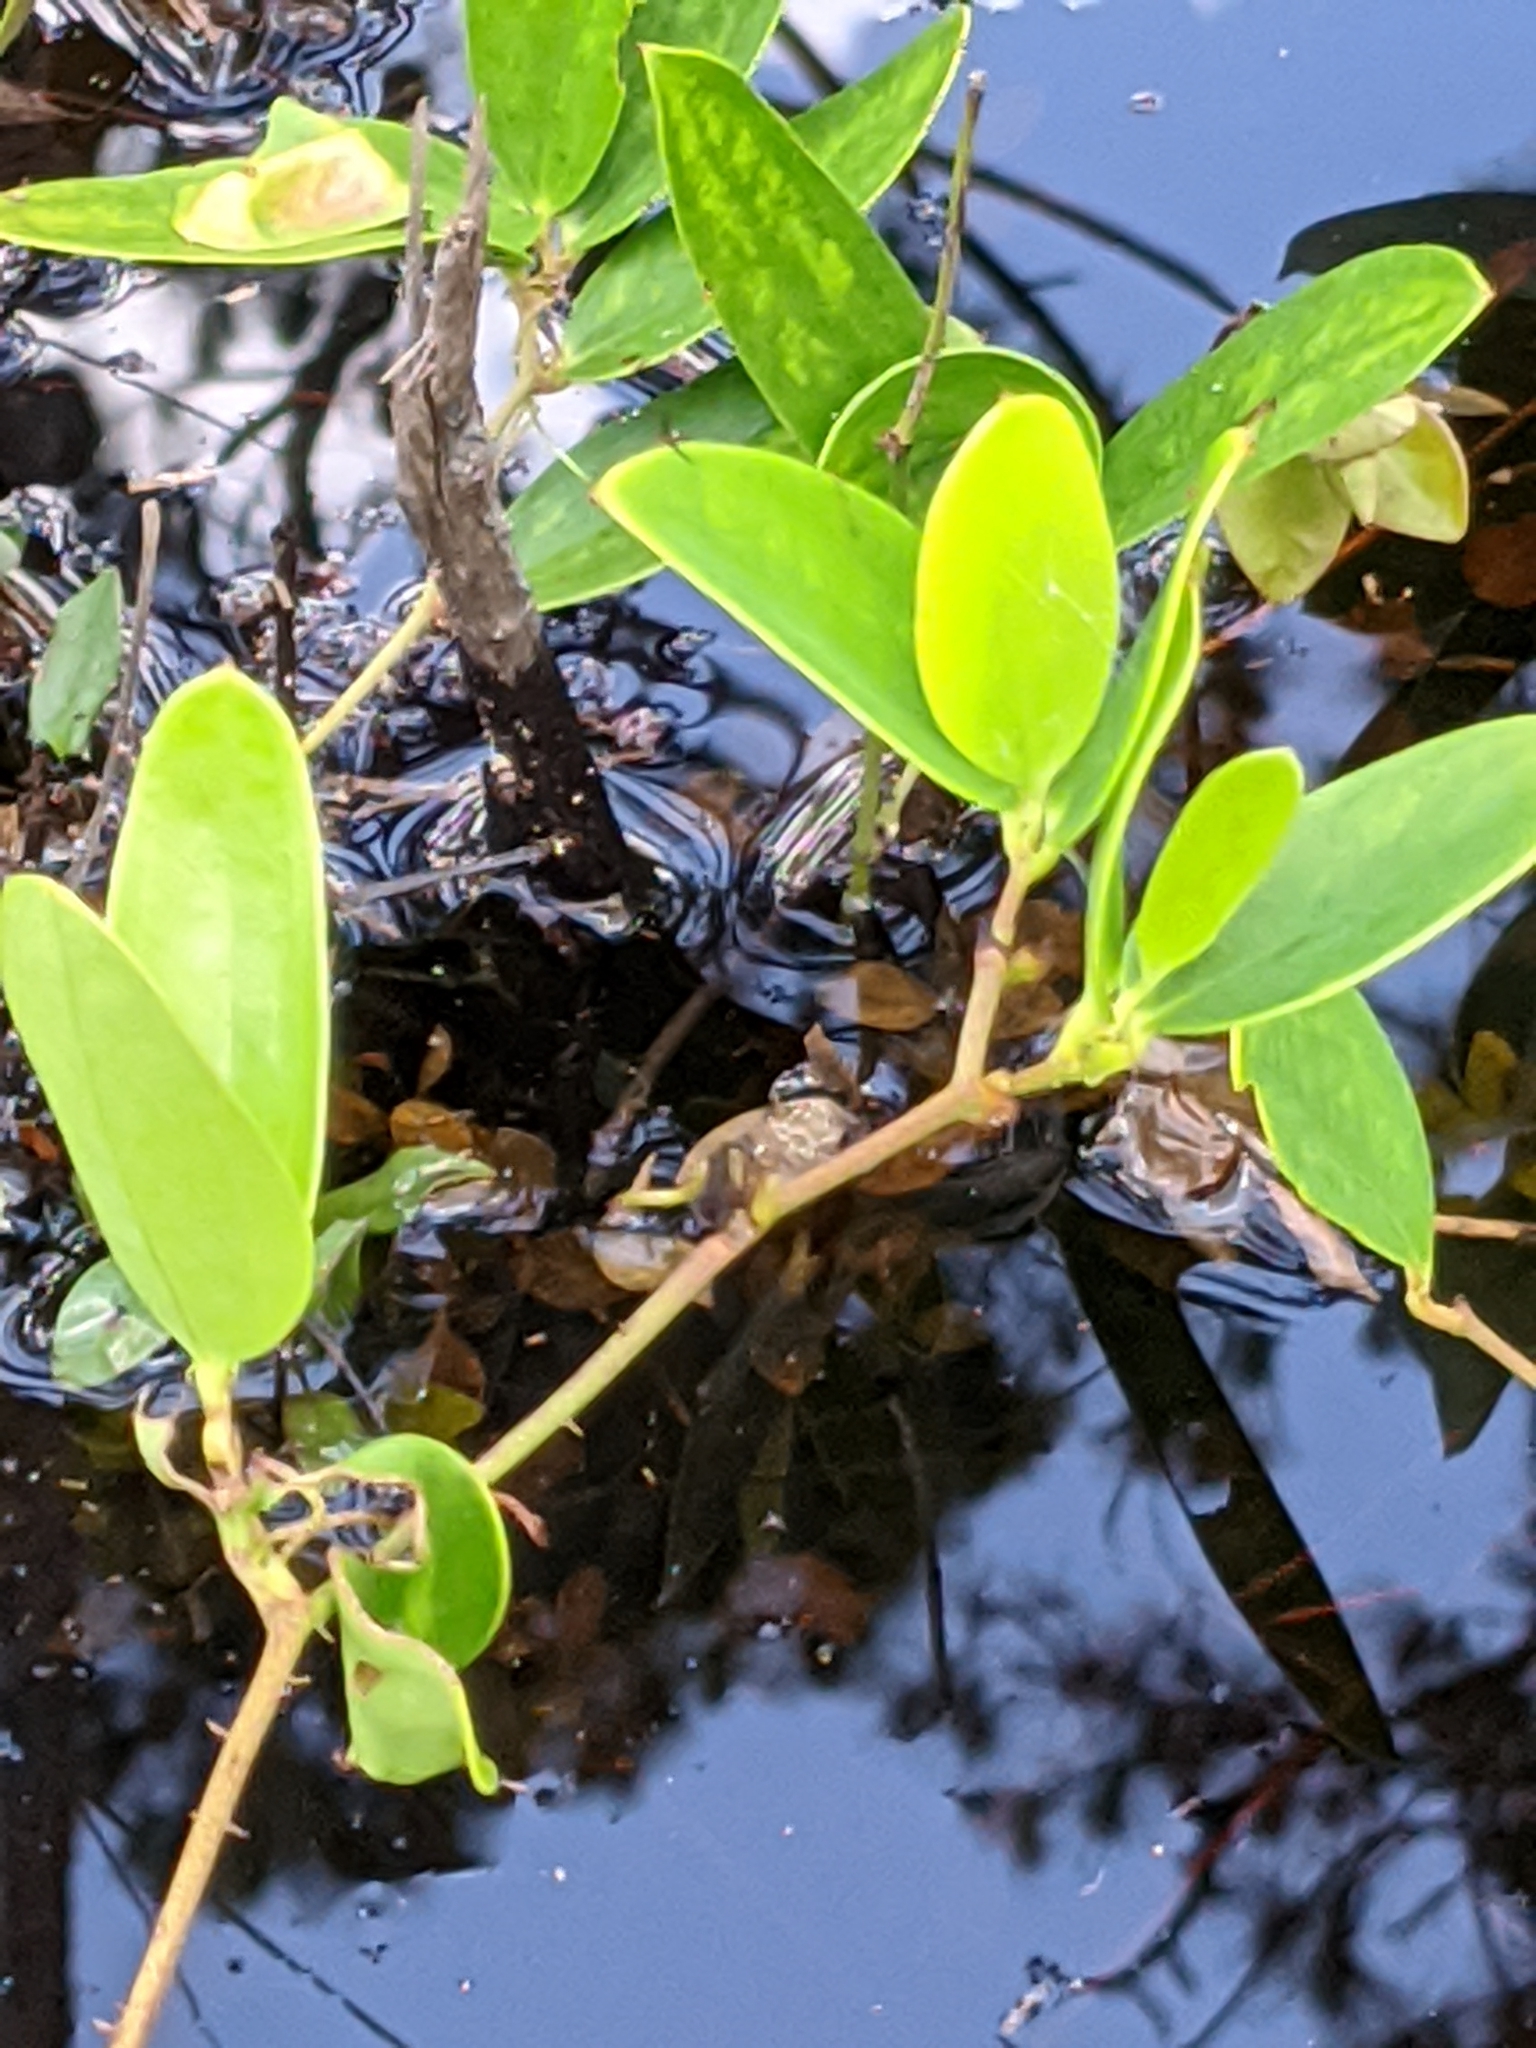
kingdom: Plantae
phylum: Tracheophyta
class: Liliopsida
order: Liliales
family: Smilacaceae
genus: Smilax
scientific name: Smilax auriculata
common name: Wild bamboo
